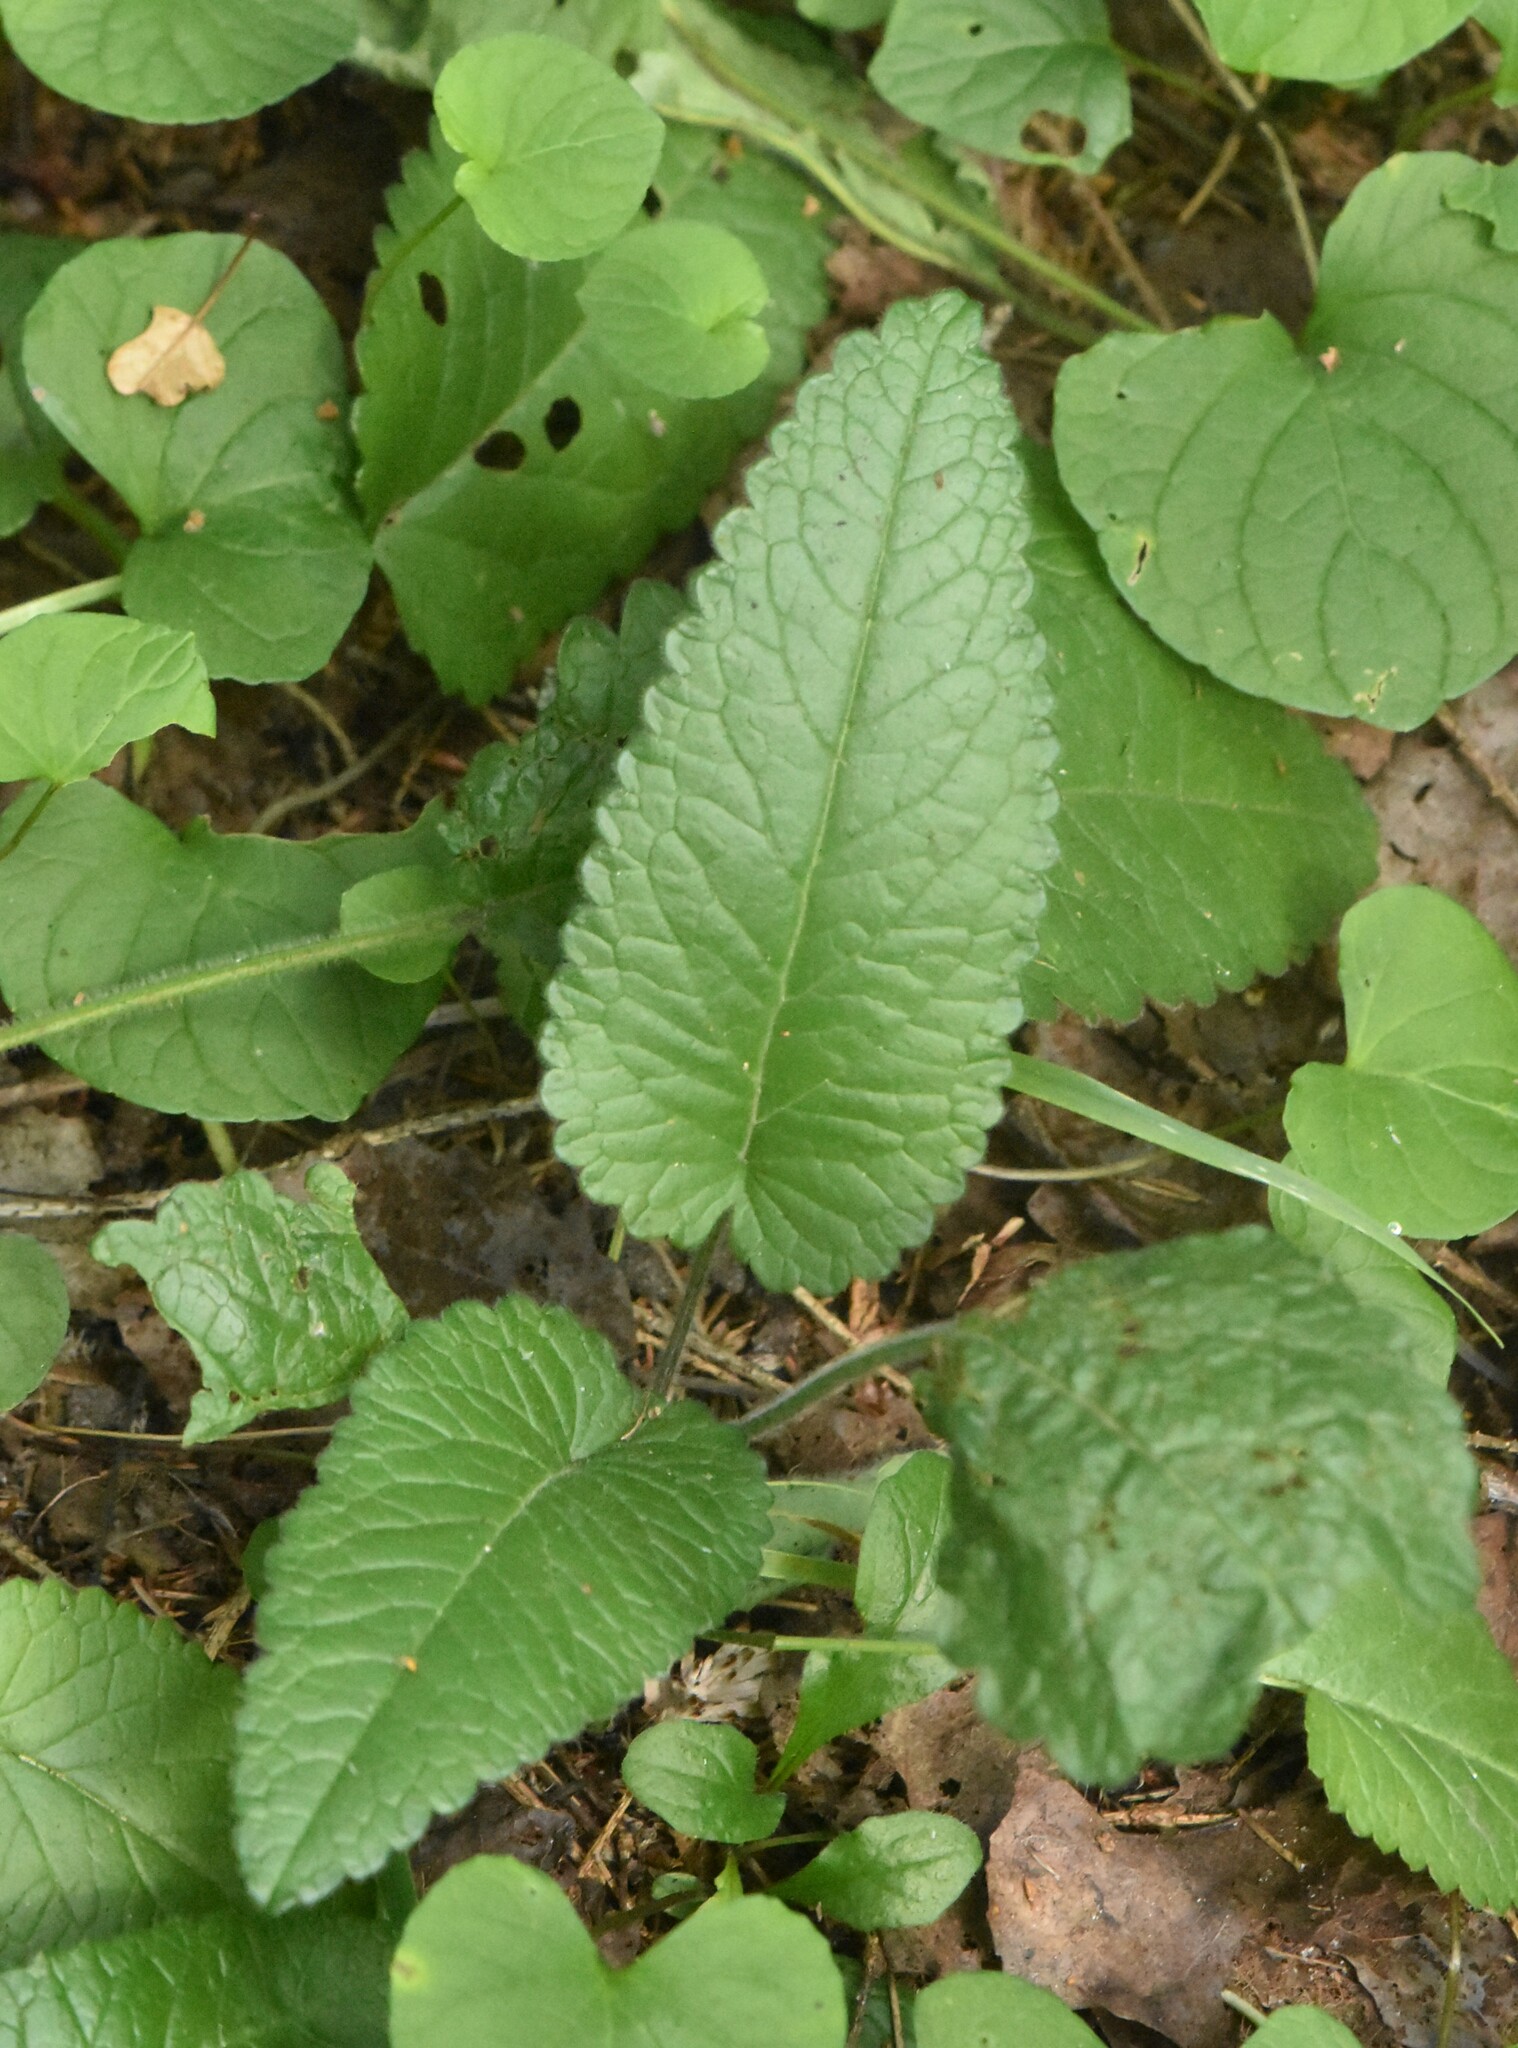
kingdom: Plantae
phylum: Tracheophyta
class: Magnoliopsida
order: Lamiales
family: Lamiaceae
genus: Betonica
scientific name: Betonica officinalis
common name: Bishop's-wort
